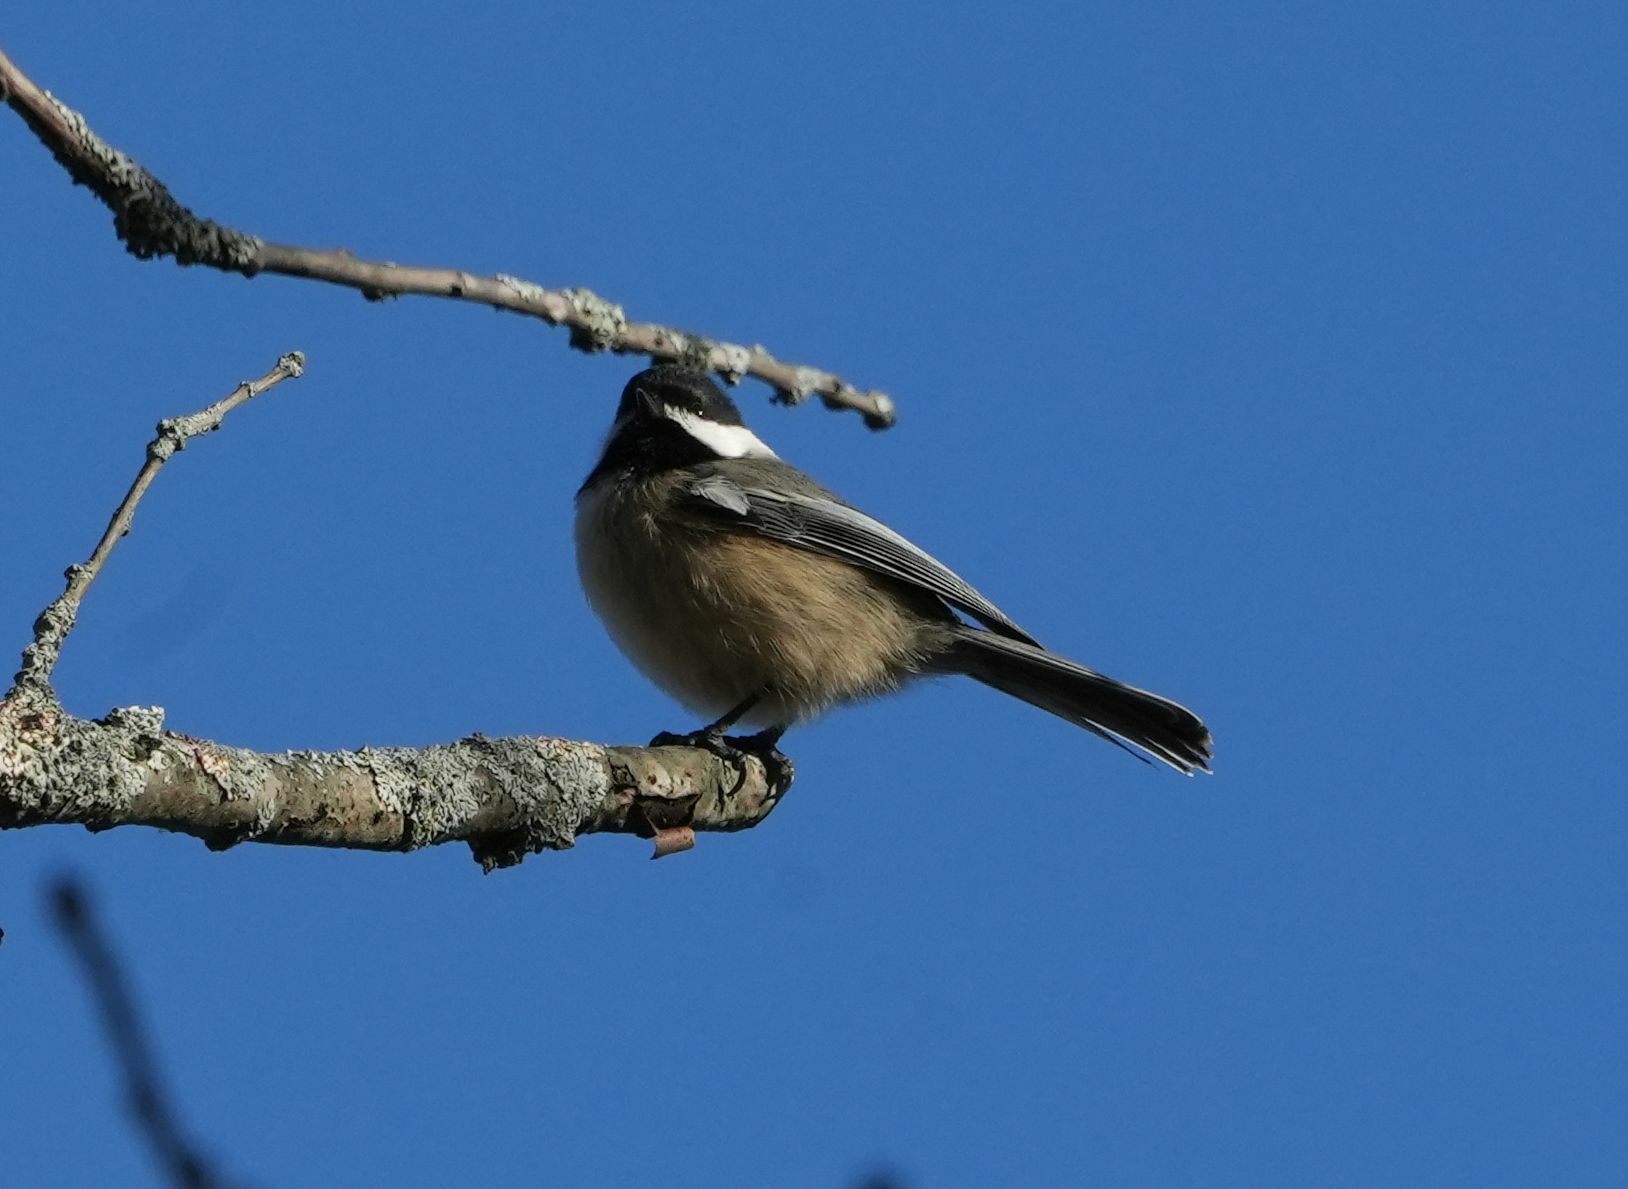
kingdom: Animalia
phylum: Chordata
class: Aves
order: Passeriformes
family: Paridae
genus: Poecile
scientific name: Poecile atricapillus
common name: Black-capped chickadee
